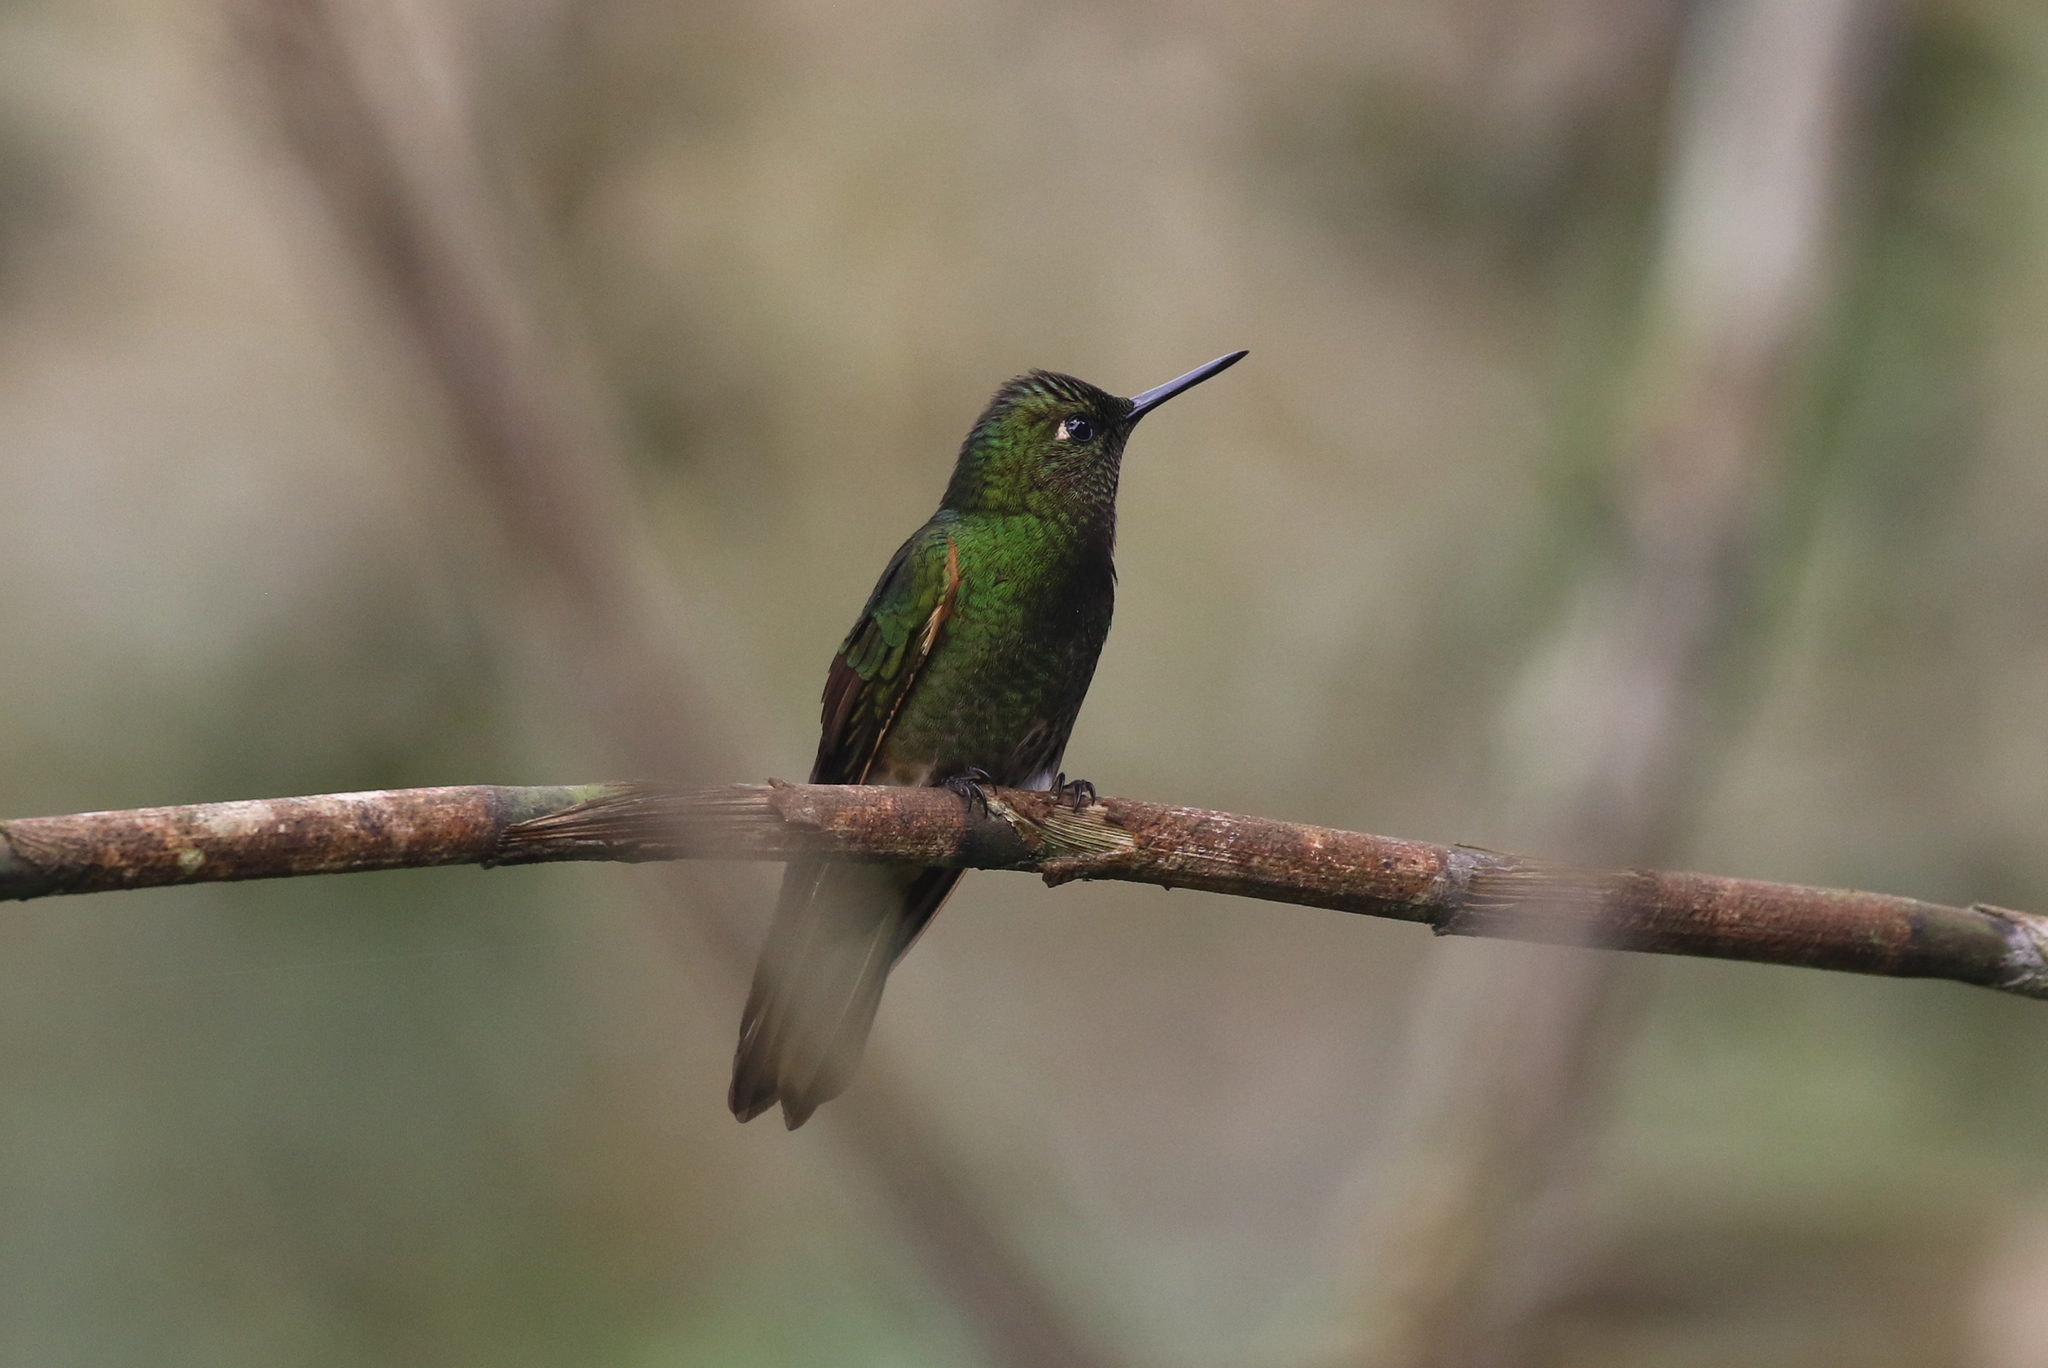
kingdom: Animalia
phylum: Chordata
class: Aves
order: Apodiformes
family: Trochilidae
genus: Boissonneaua
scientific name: Boissonneaua flavescens
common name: Buff-tailed coronet
